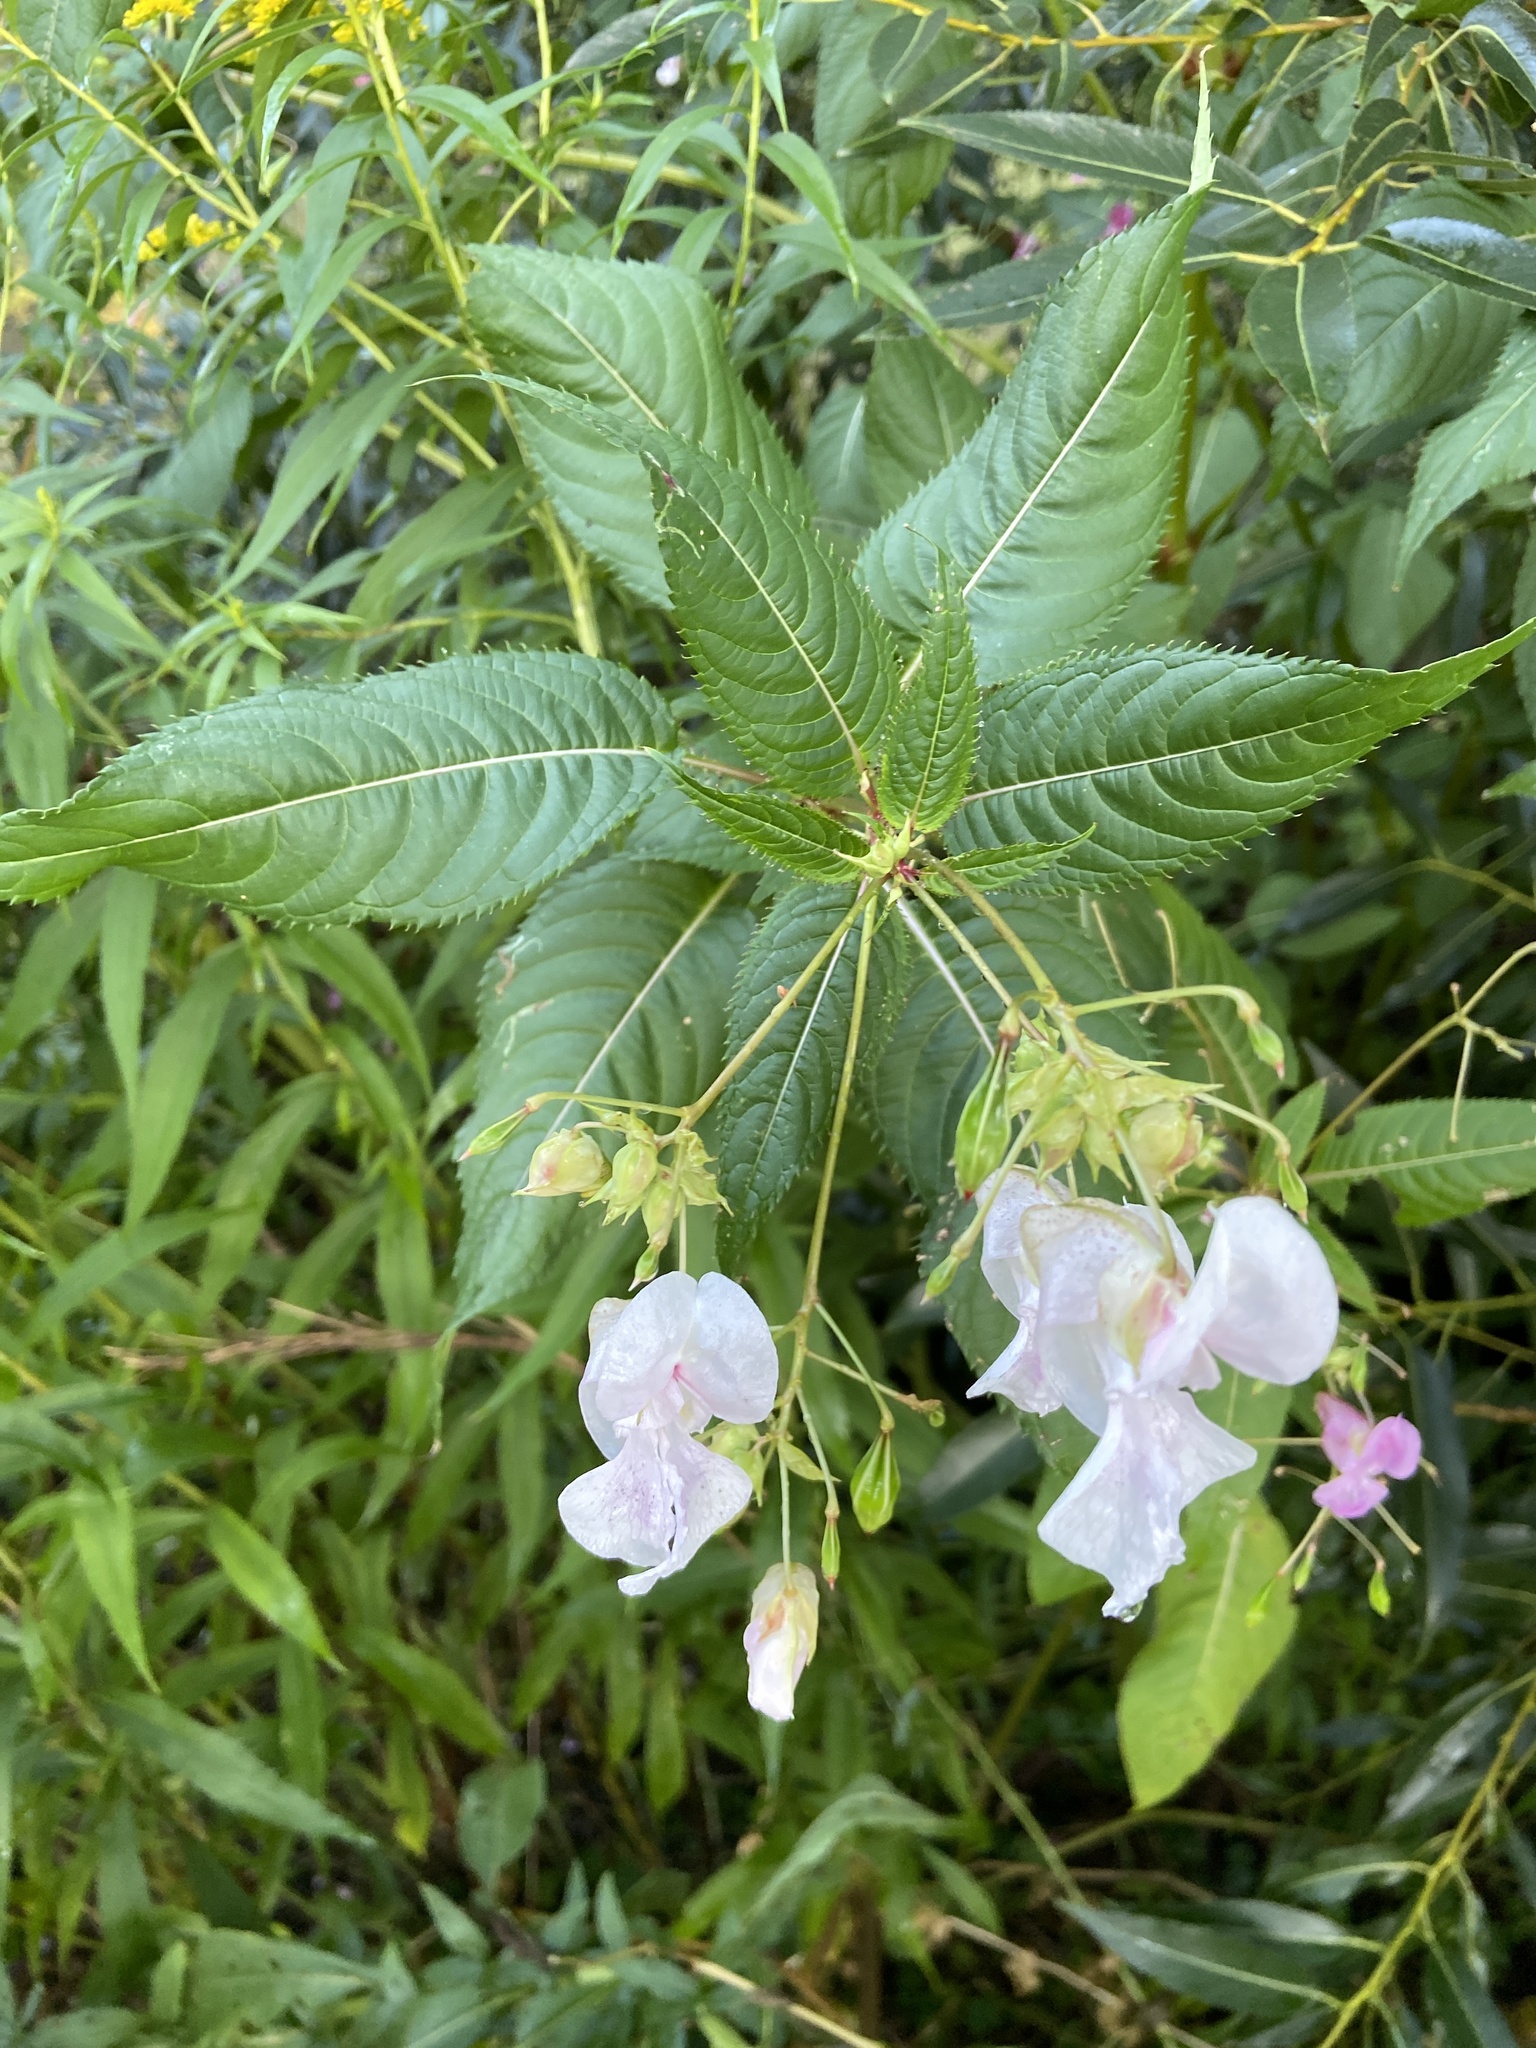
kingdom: Plantae
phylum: Tracheophyta
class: Magnoliopsida
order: Ericales
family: Balsaminaceae
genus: Impatiens
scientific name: Impatiens glandulifera
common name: Himalayan balsam
